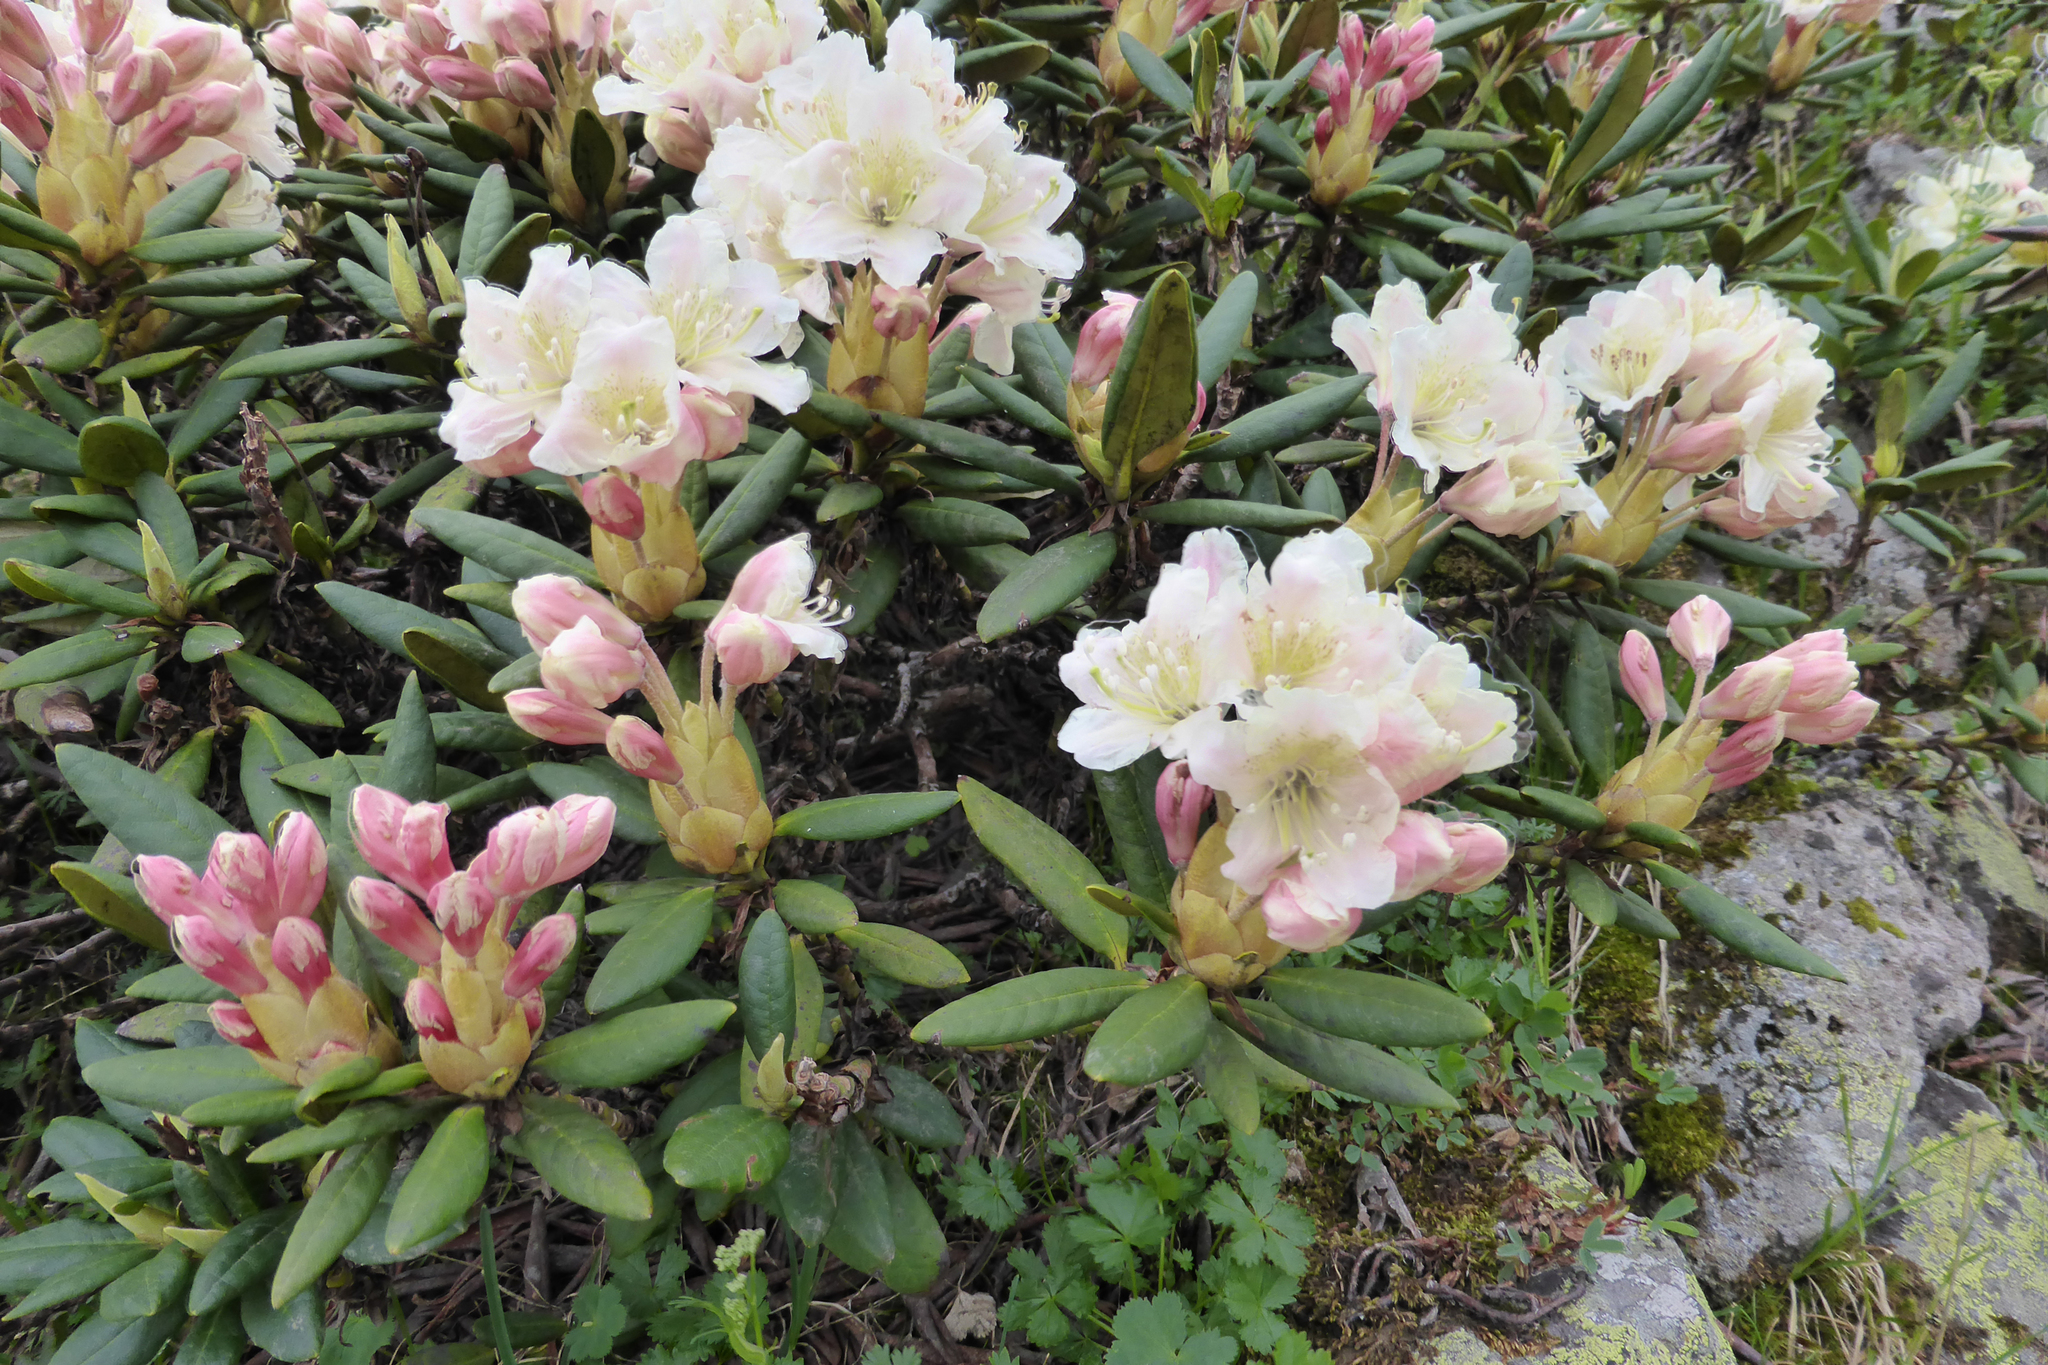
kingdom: Plantae
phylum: Tracheophyta
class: Magnoliopsida
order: Ericales
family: Ericaceae
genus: Rhododendron
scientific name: Rhododendron caucasicum
